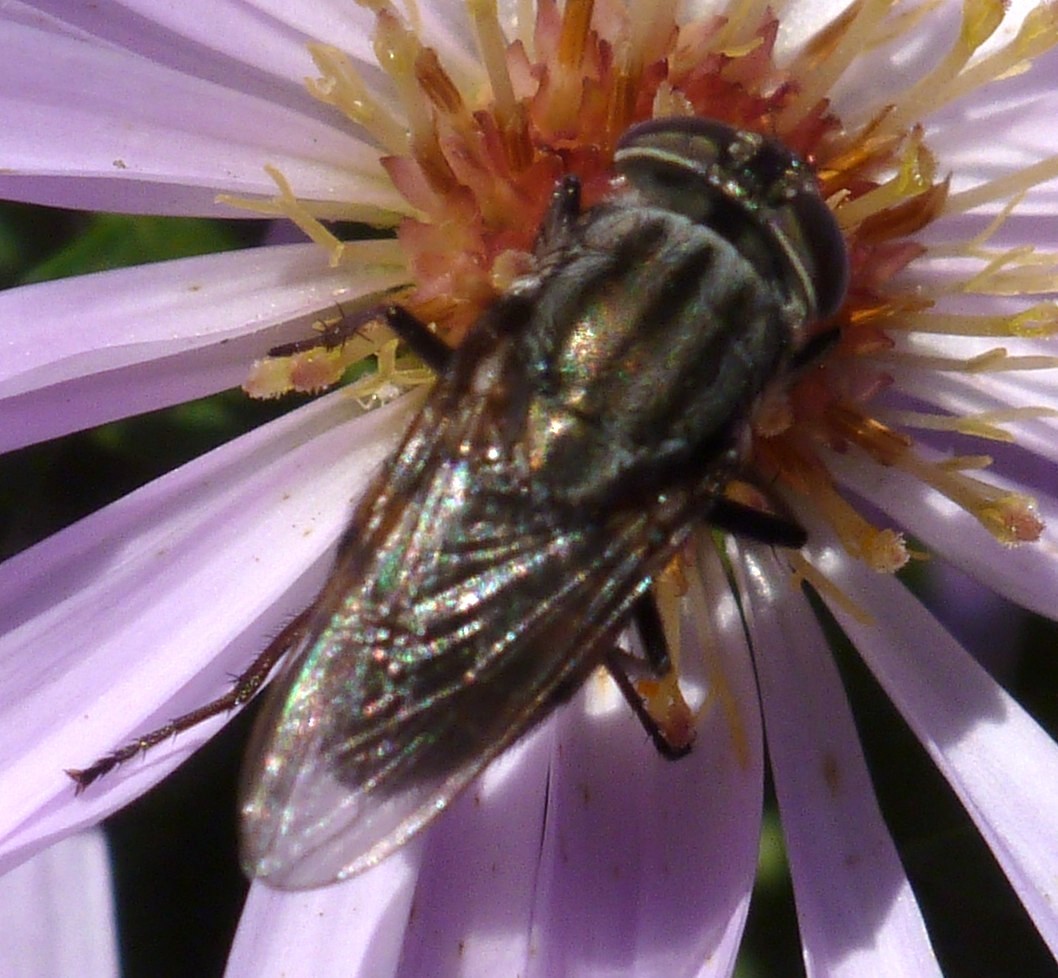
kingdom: Animalia
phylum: Arthropoda
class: Insecta
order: Diptera
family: Calliphoridae
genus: Stomorhina
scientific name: Stomorhina lunata
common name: Locust blowfly
